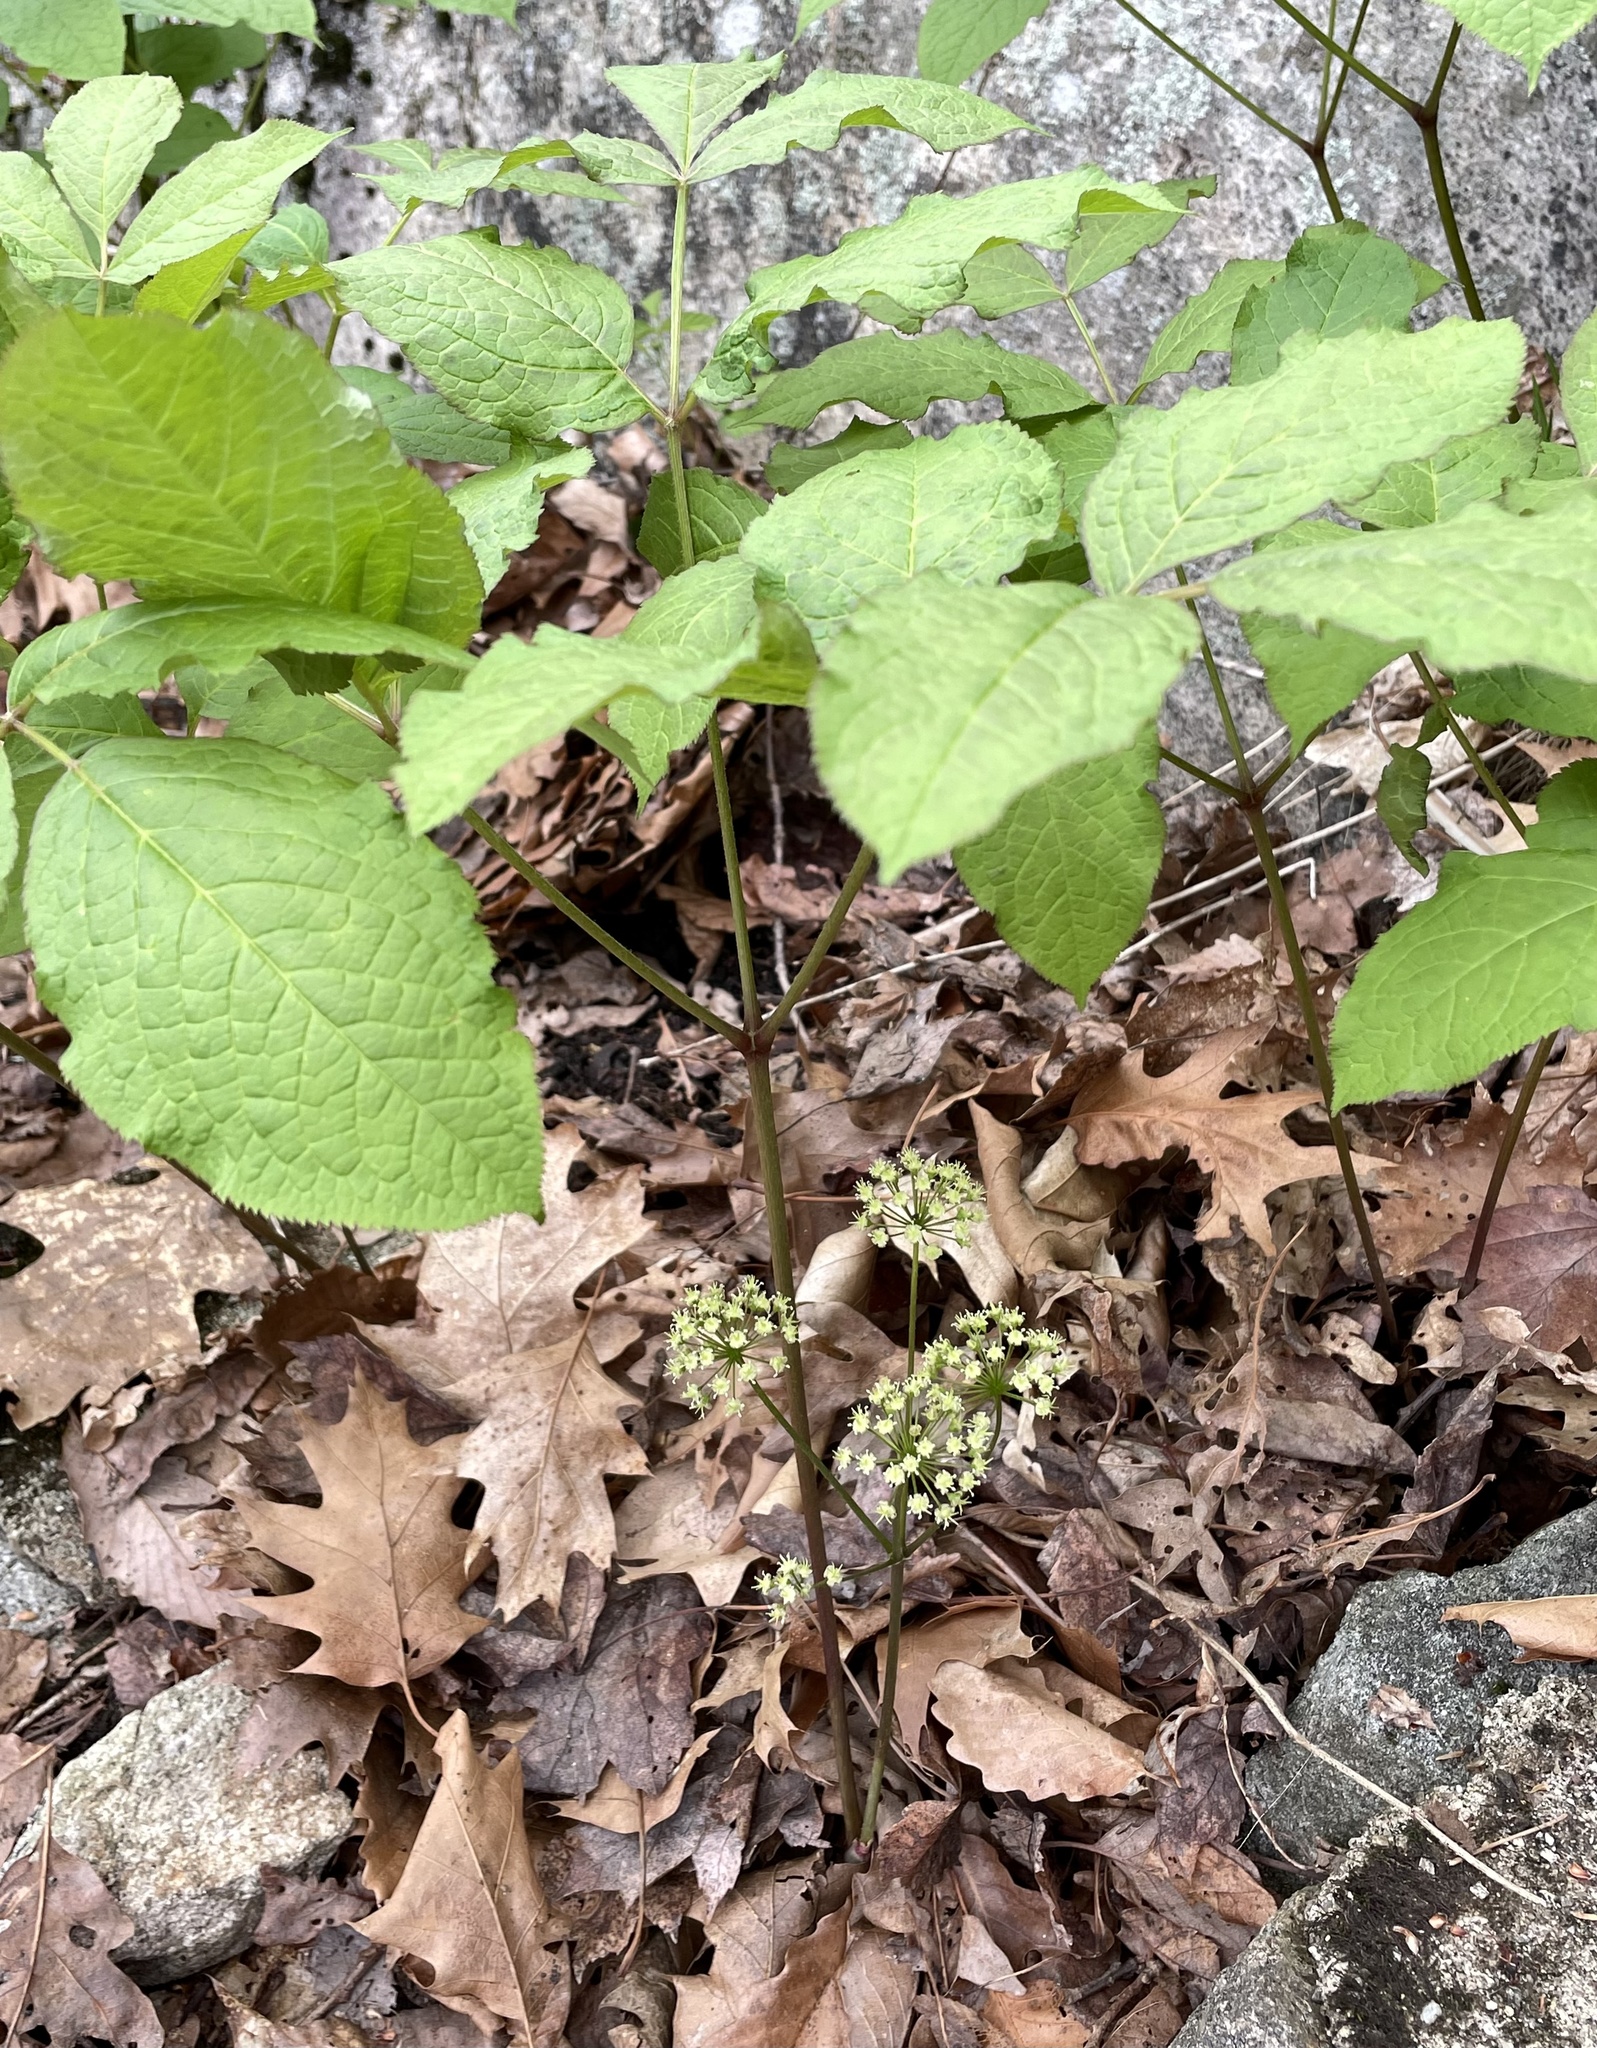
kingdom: Plantae
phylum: Tracheophyta
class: Magnoliopsida
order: Apiales
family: Araliaceae
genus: Aralia
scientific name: Aralia nudicaulis
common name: Wild sarsaparilla
